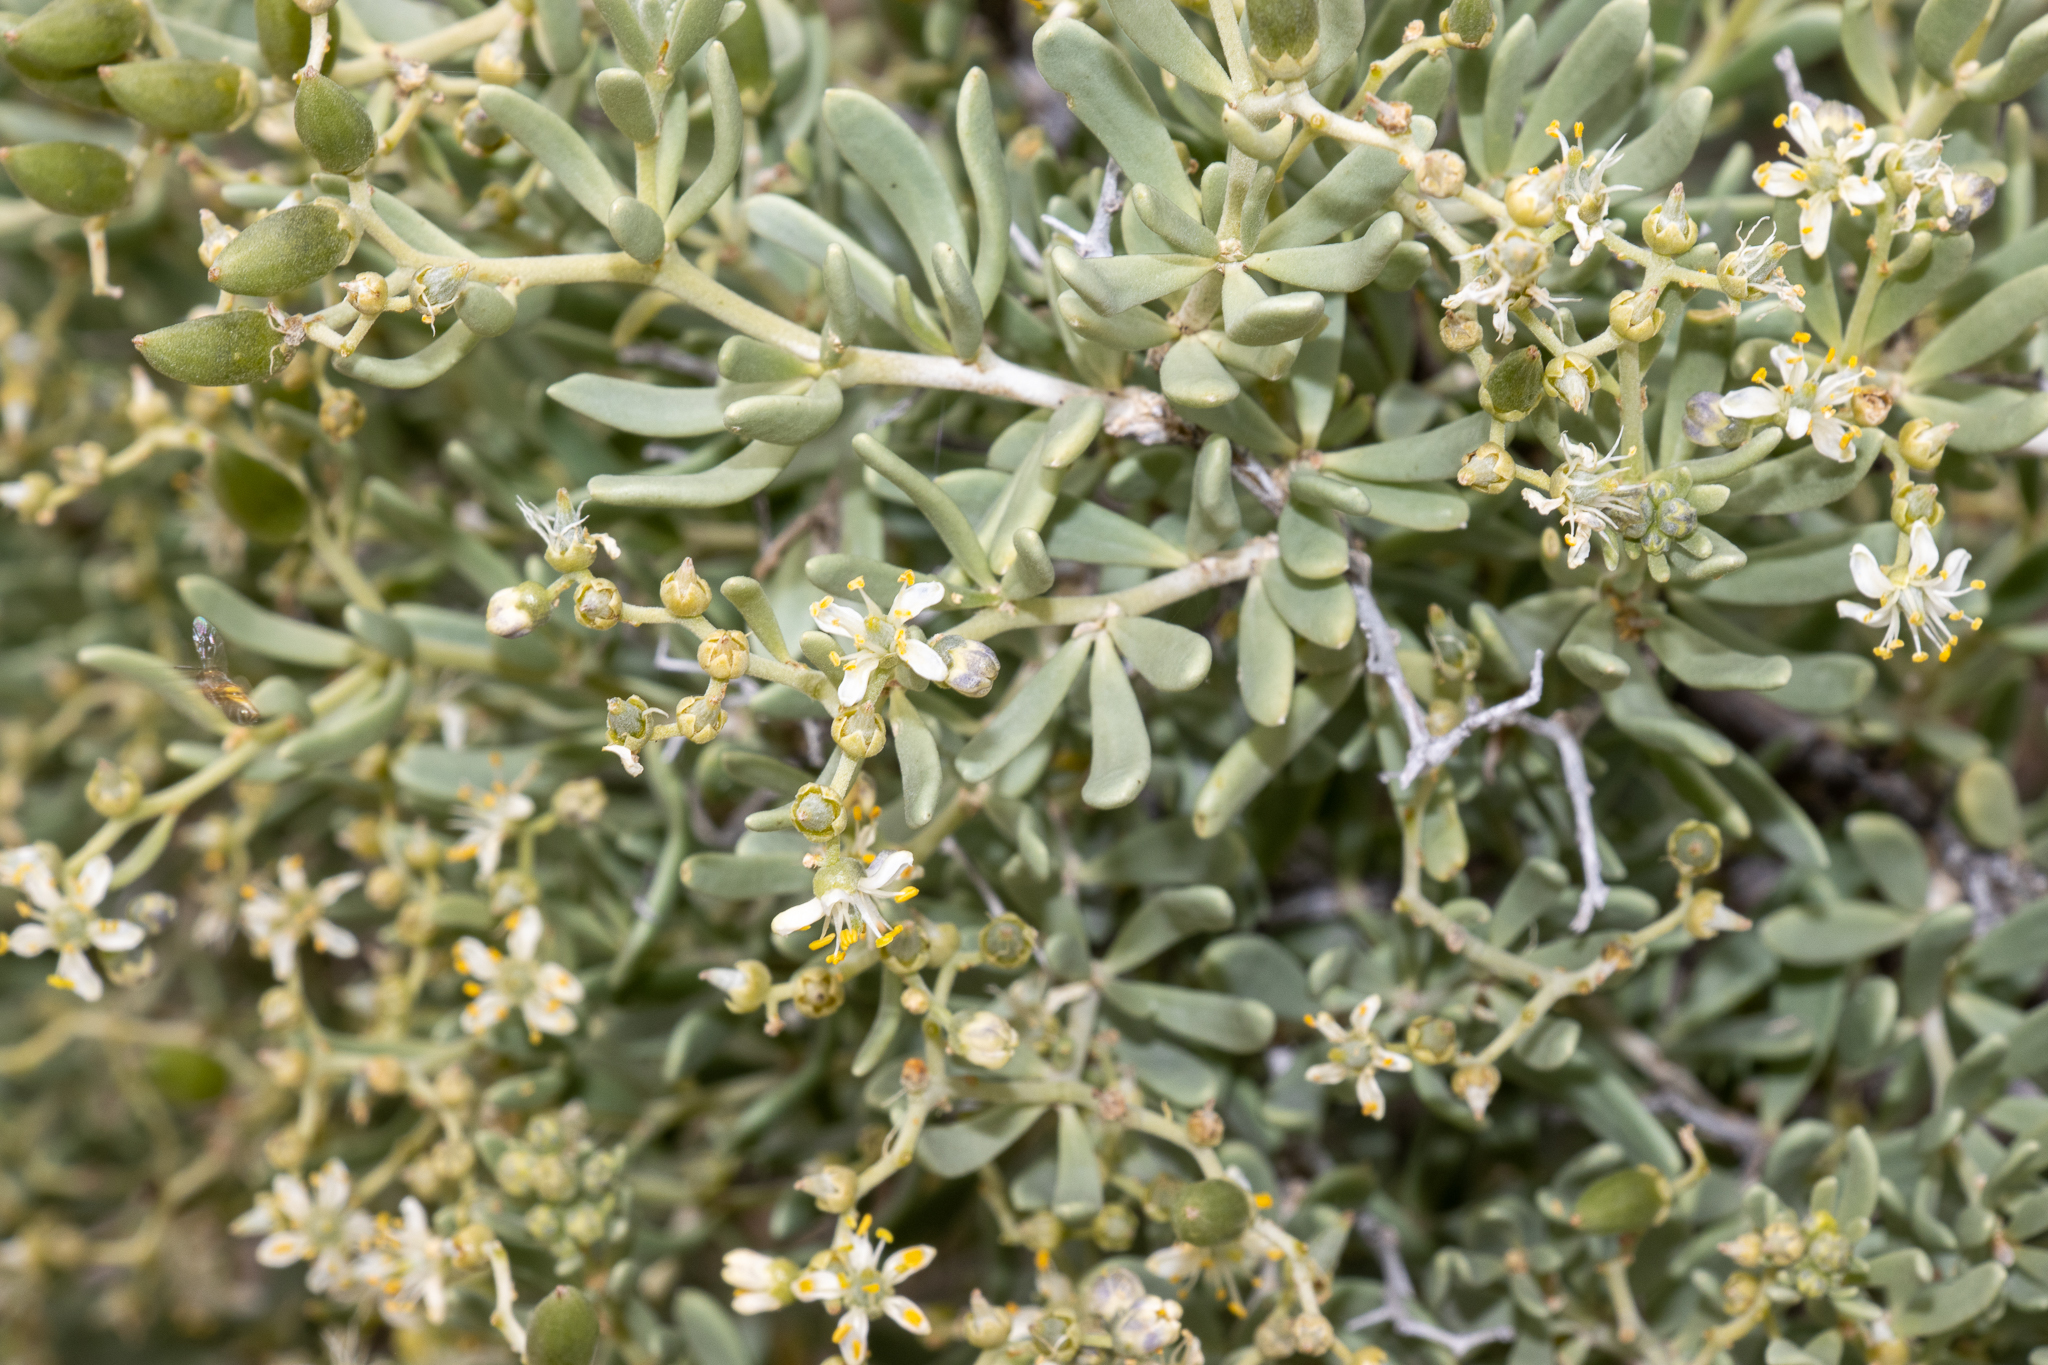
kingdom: Plantae
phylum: Tracheophyta
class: Magnoliopsida
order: Sapindales
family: Nitrariaceae
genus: Nitraria
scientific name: Nitraria billardierei
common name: Dillonbush
